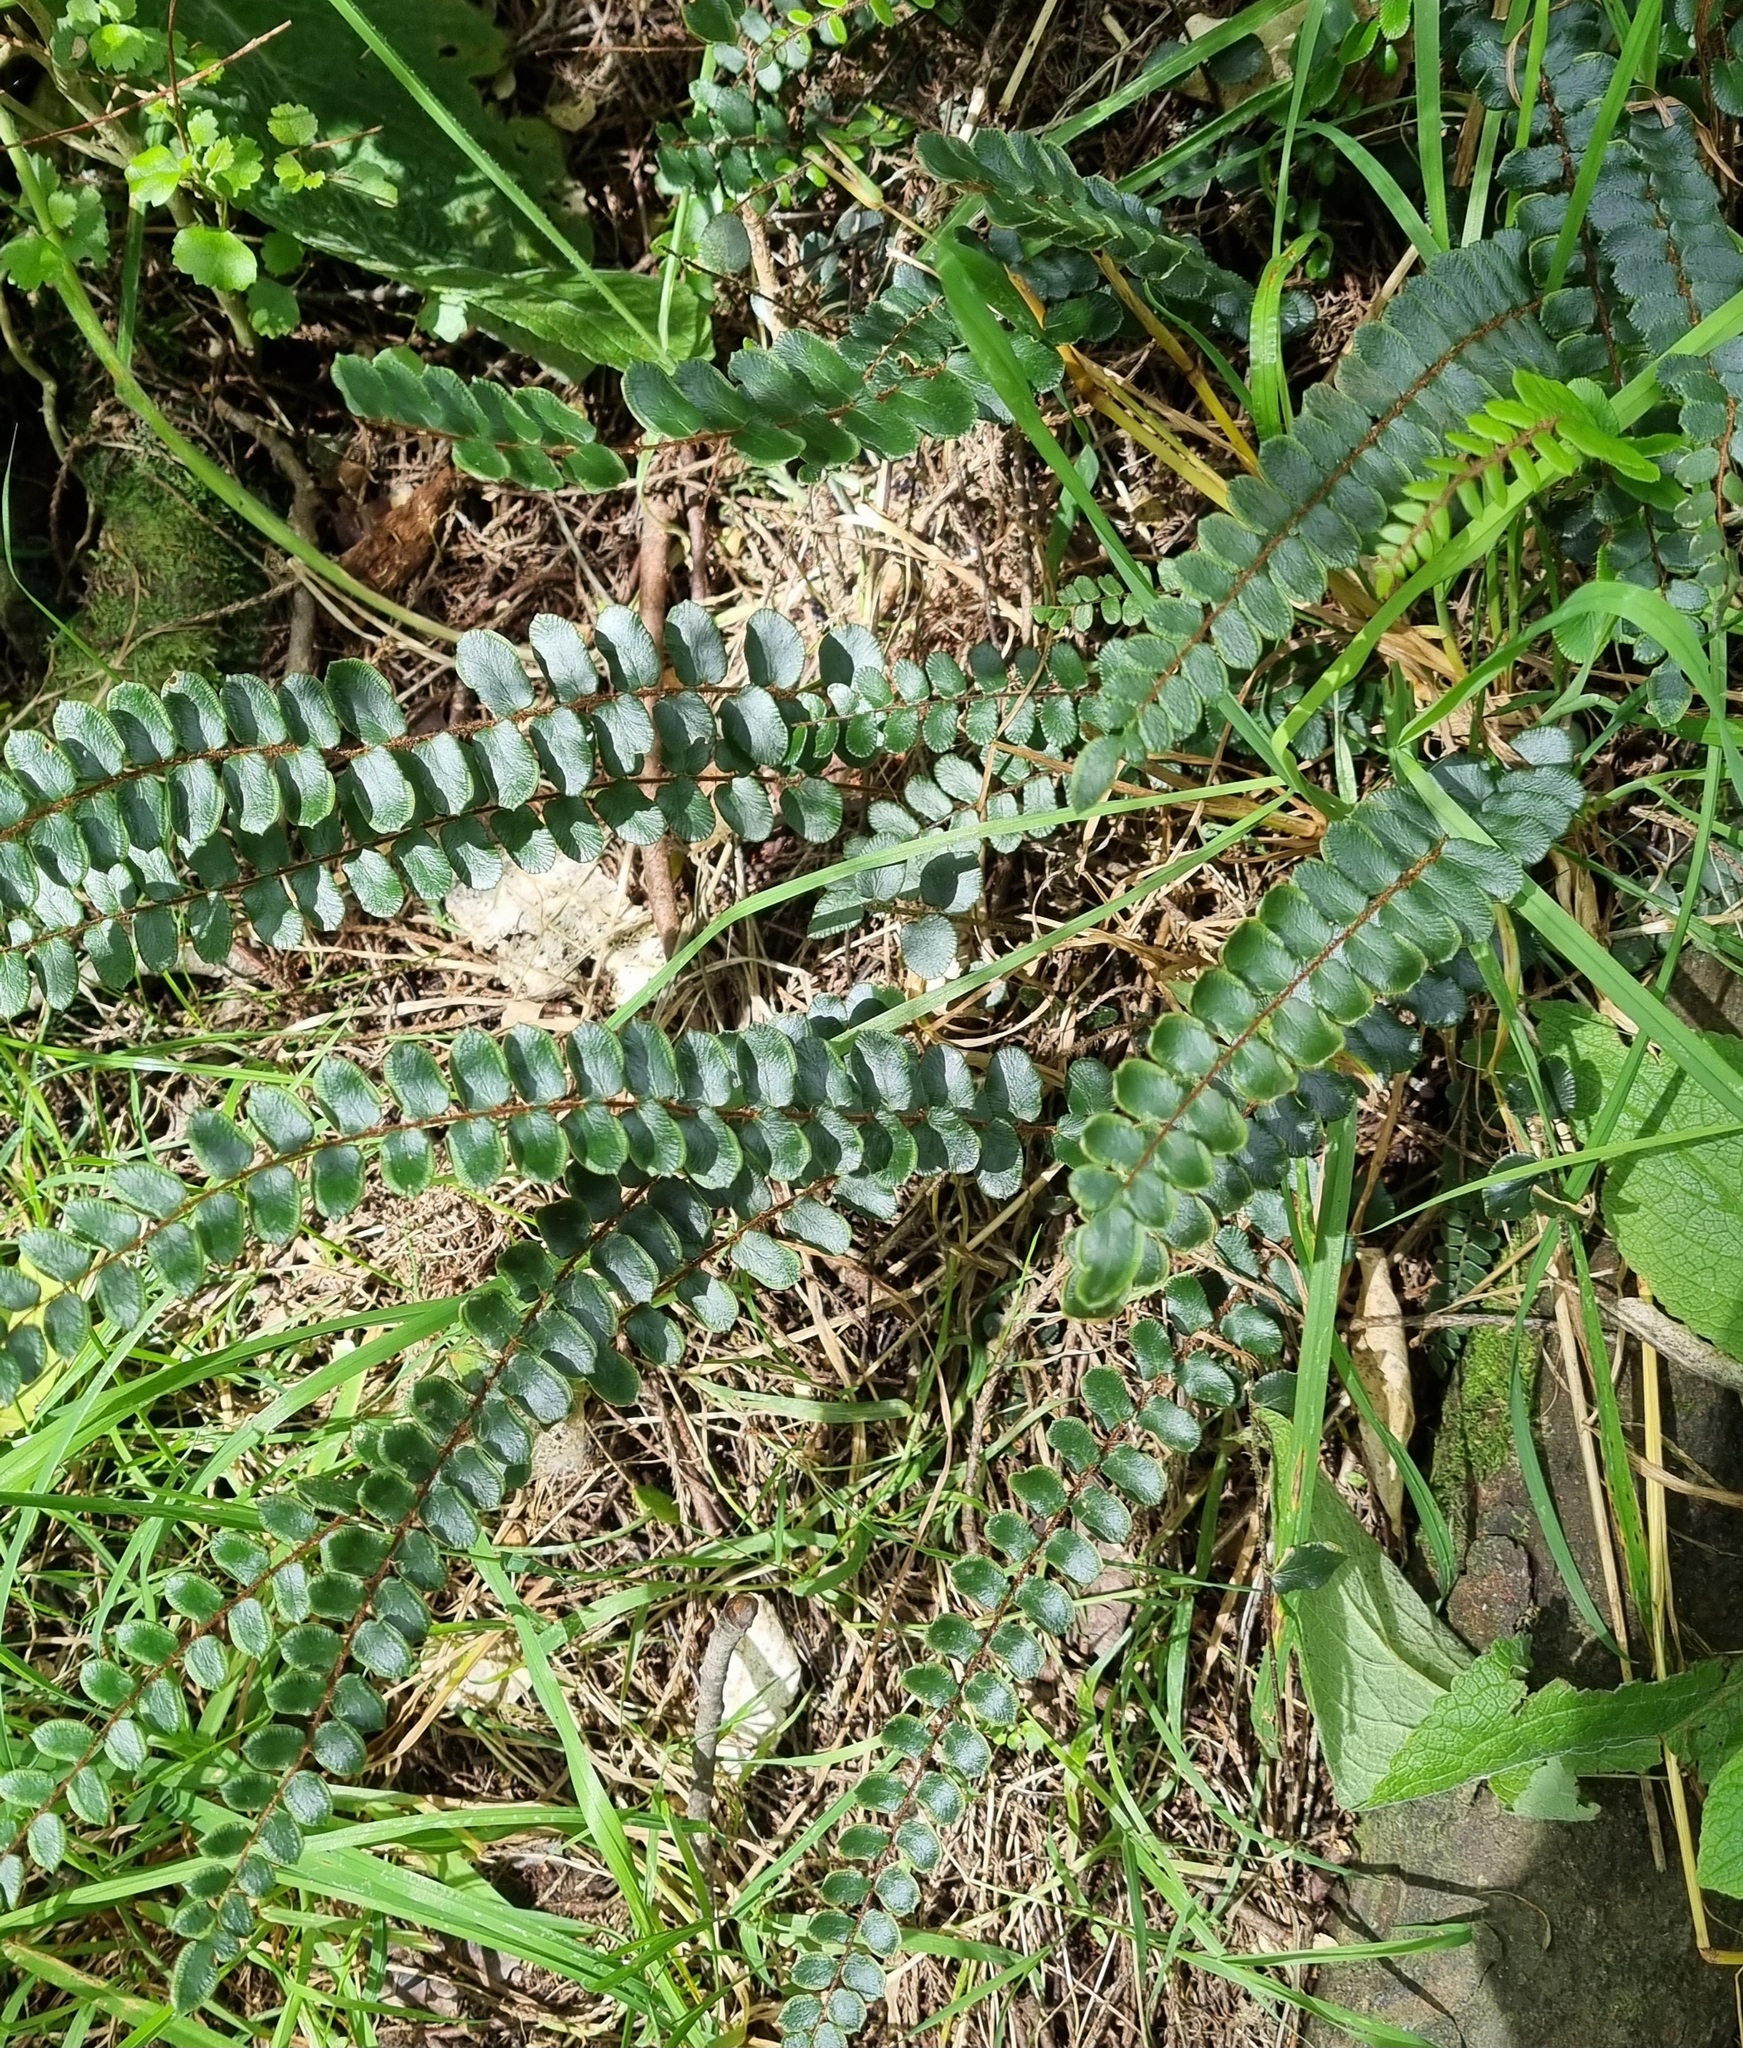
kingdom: Plantae
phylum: Tracheophyta
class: Polypodiopsida
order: Polypodiales
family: Pteridaceae
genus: Pellaea
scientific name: Pellaea rotundifolia
